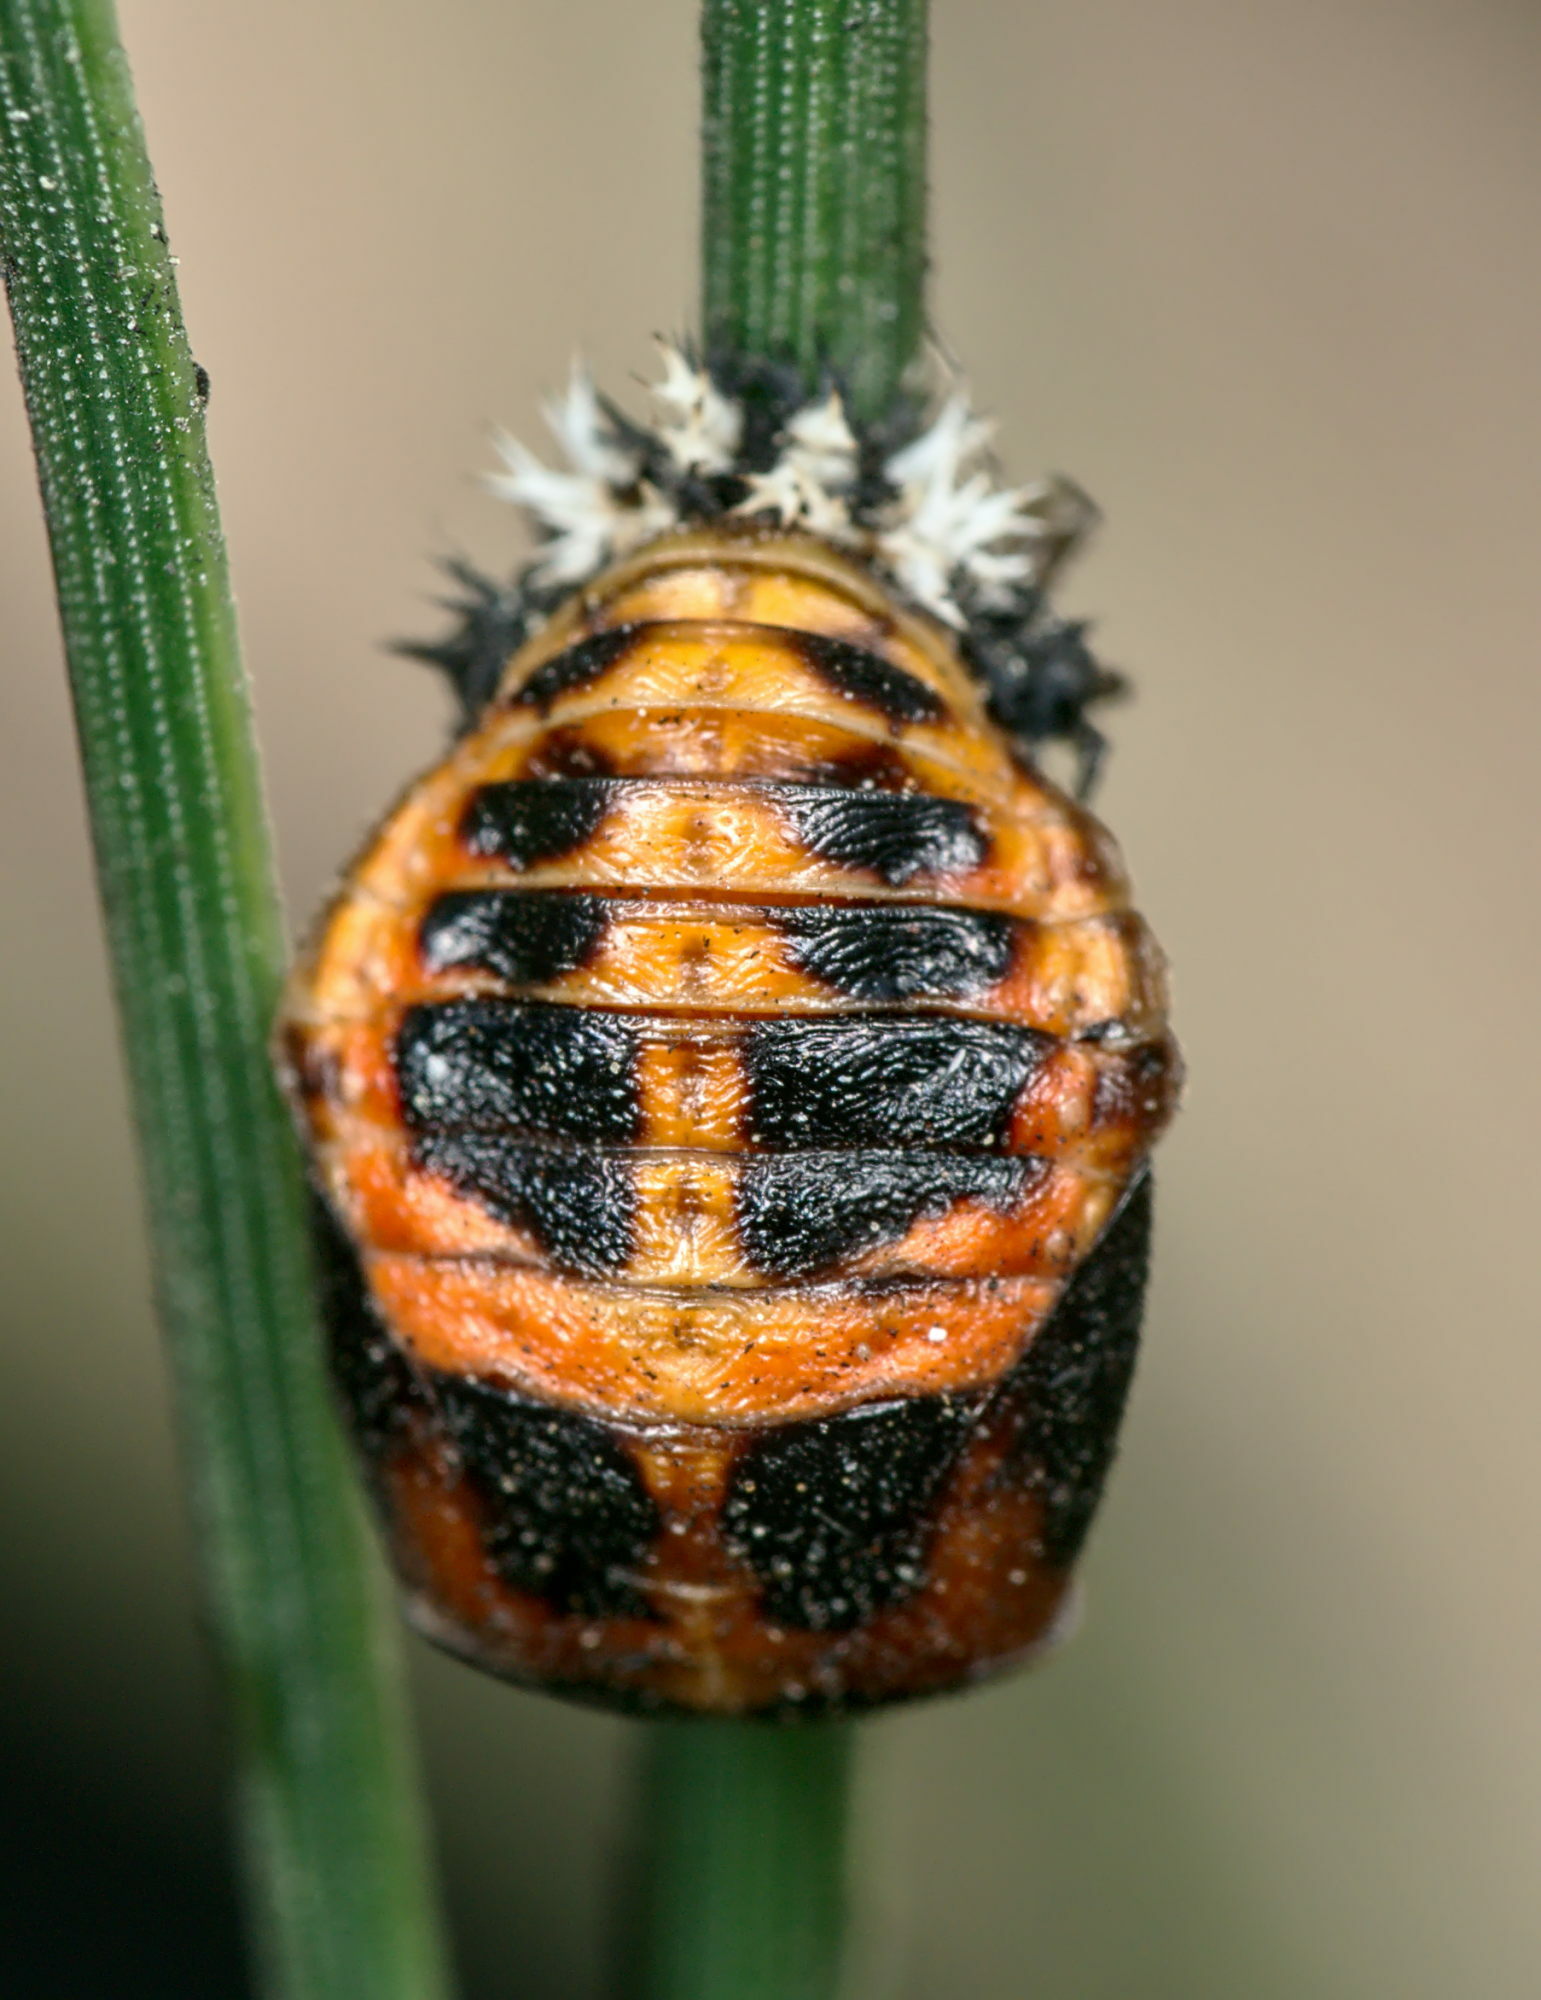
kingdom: Animalia
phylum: Arthropoda
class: Insecta
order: Coleoptera
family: Coccinellidae
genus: Harmonia
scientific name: Harmonia axyridis
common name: Harlequin ladybird
